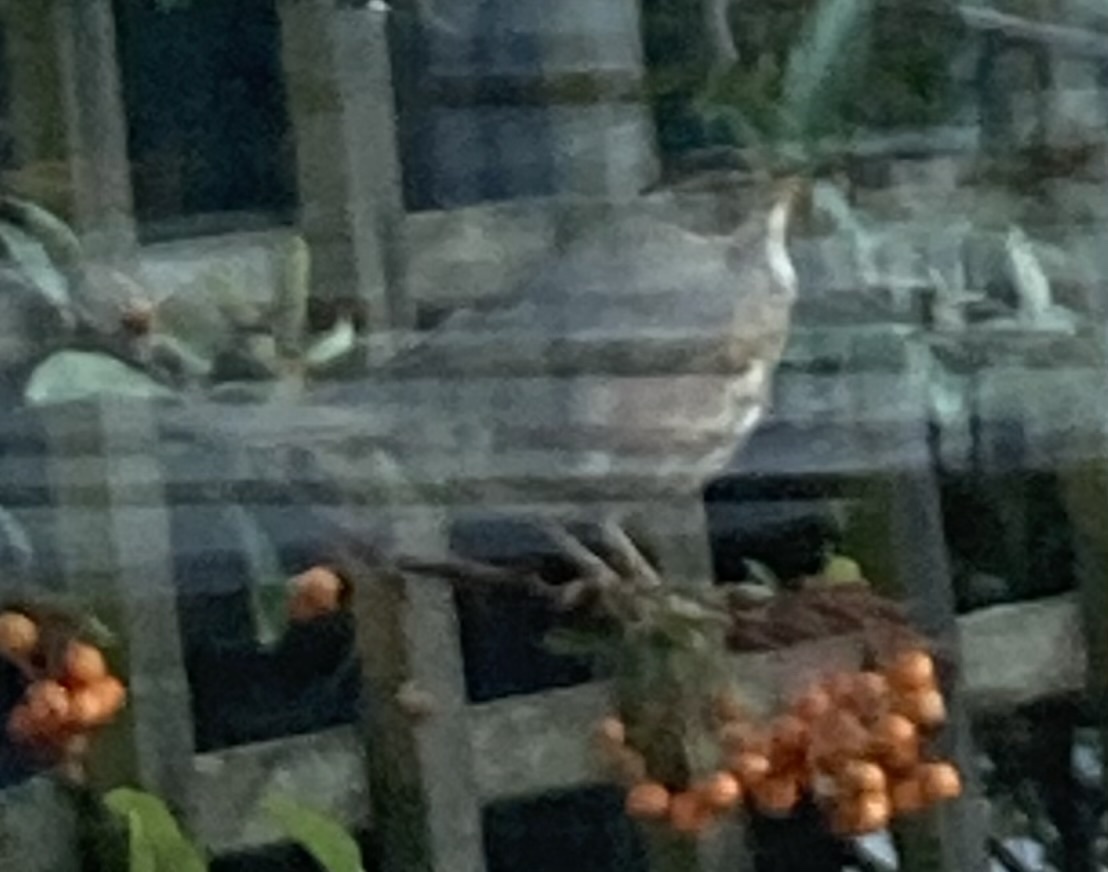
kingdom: Animalia
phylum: Chordata
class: Aves
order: Passeriformes
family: Turdidae
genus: Turdus
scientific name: Turdus iliacus
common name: Redwing
